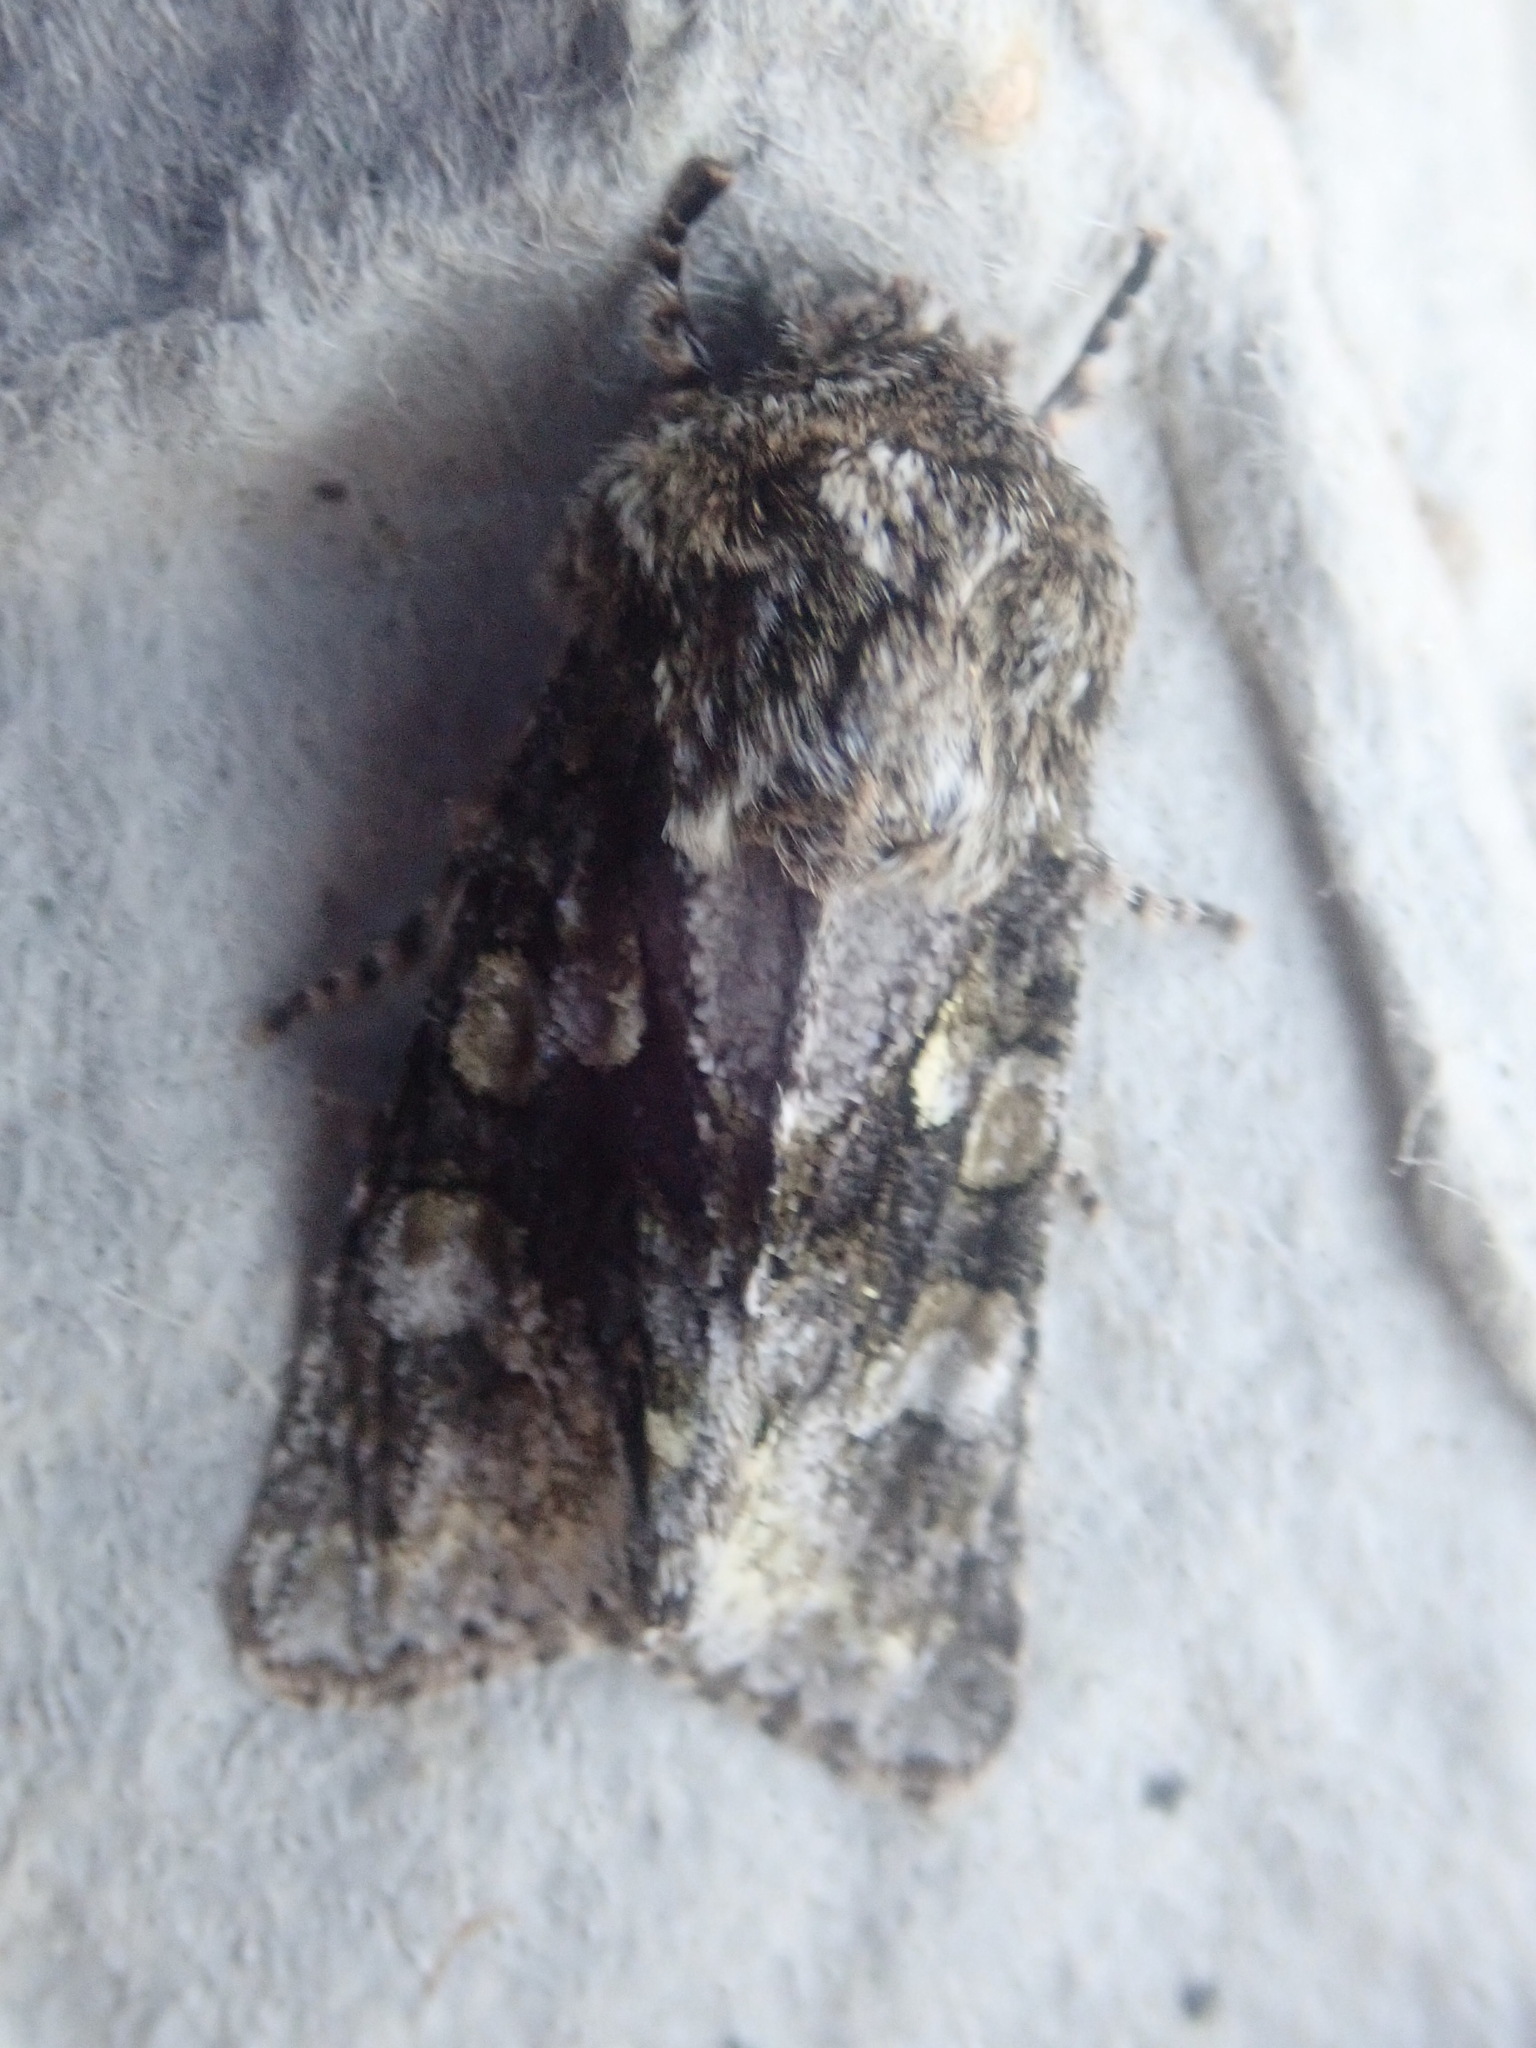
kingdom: Animalia
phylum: Arthropoda
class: Insecta
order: Lepidoptera
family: Noctuidae
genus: Psaphida
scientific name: Psaphida resumens
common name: Figure-eight sallow
